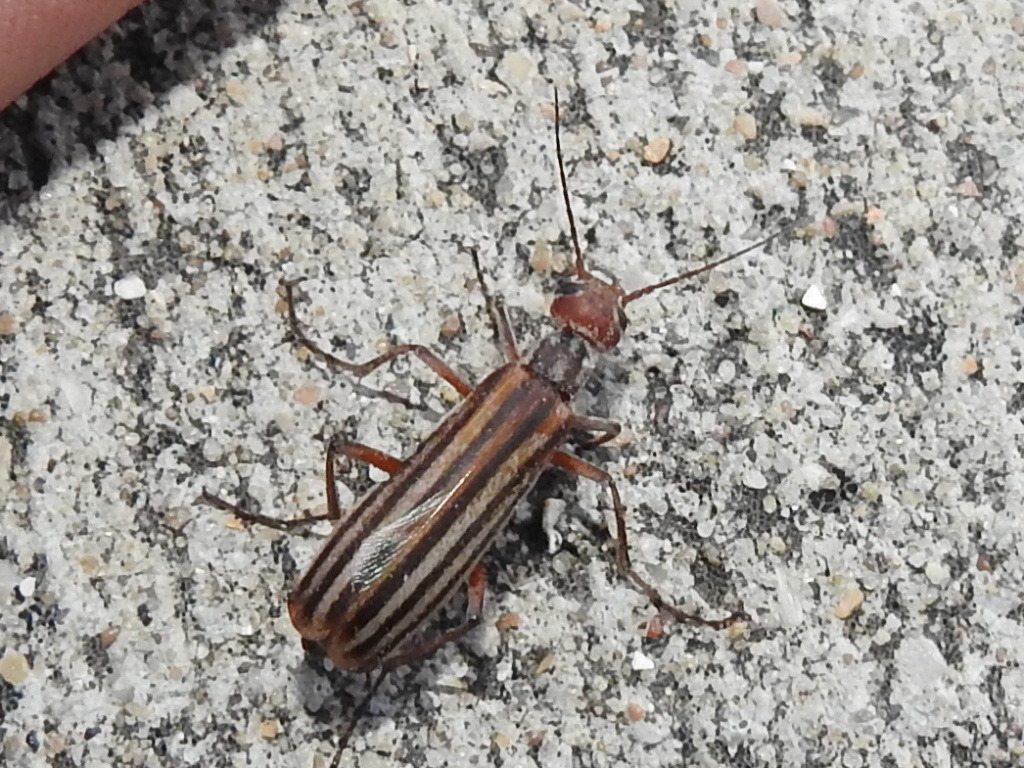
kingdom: Animalia
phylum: Arthropoda
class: Insecta
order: Coleoptera
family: Meloidae
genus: Epicauta
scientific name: Epicauta vittata
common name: Old-fashioned potato beetle
